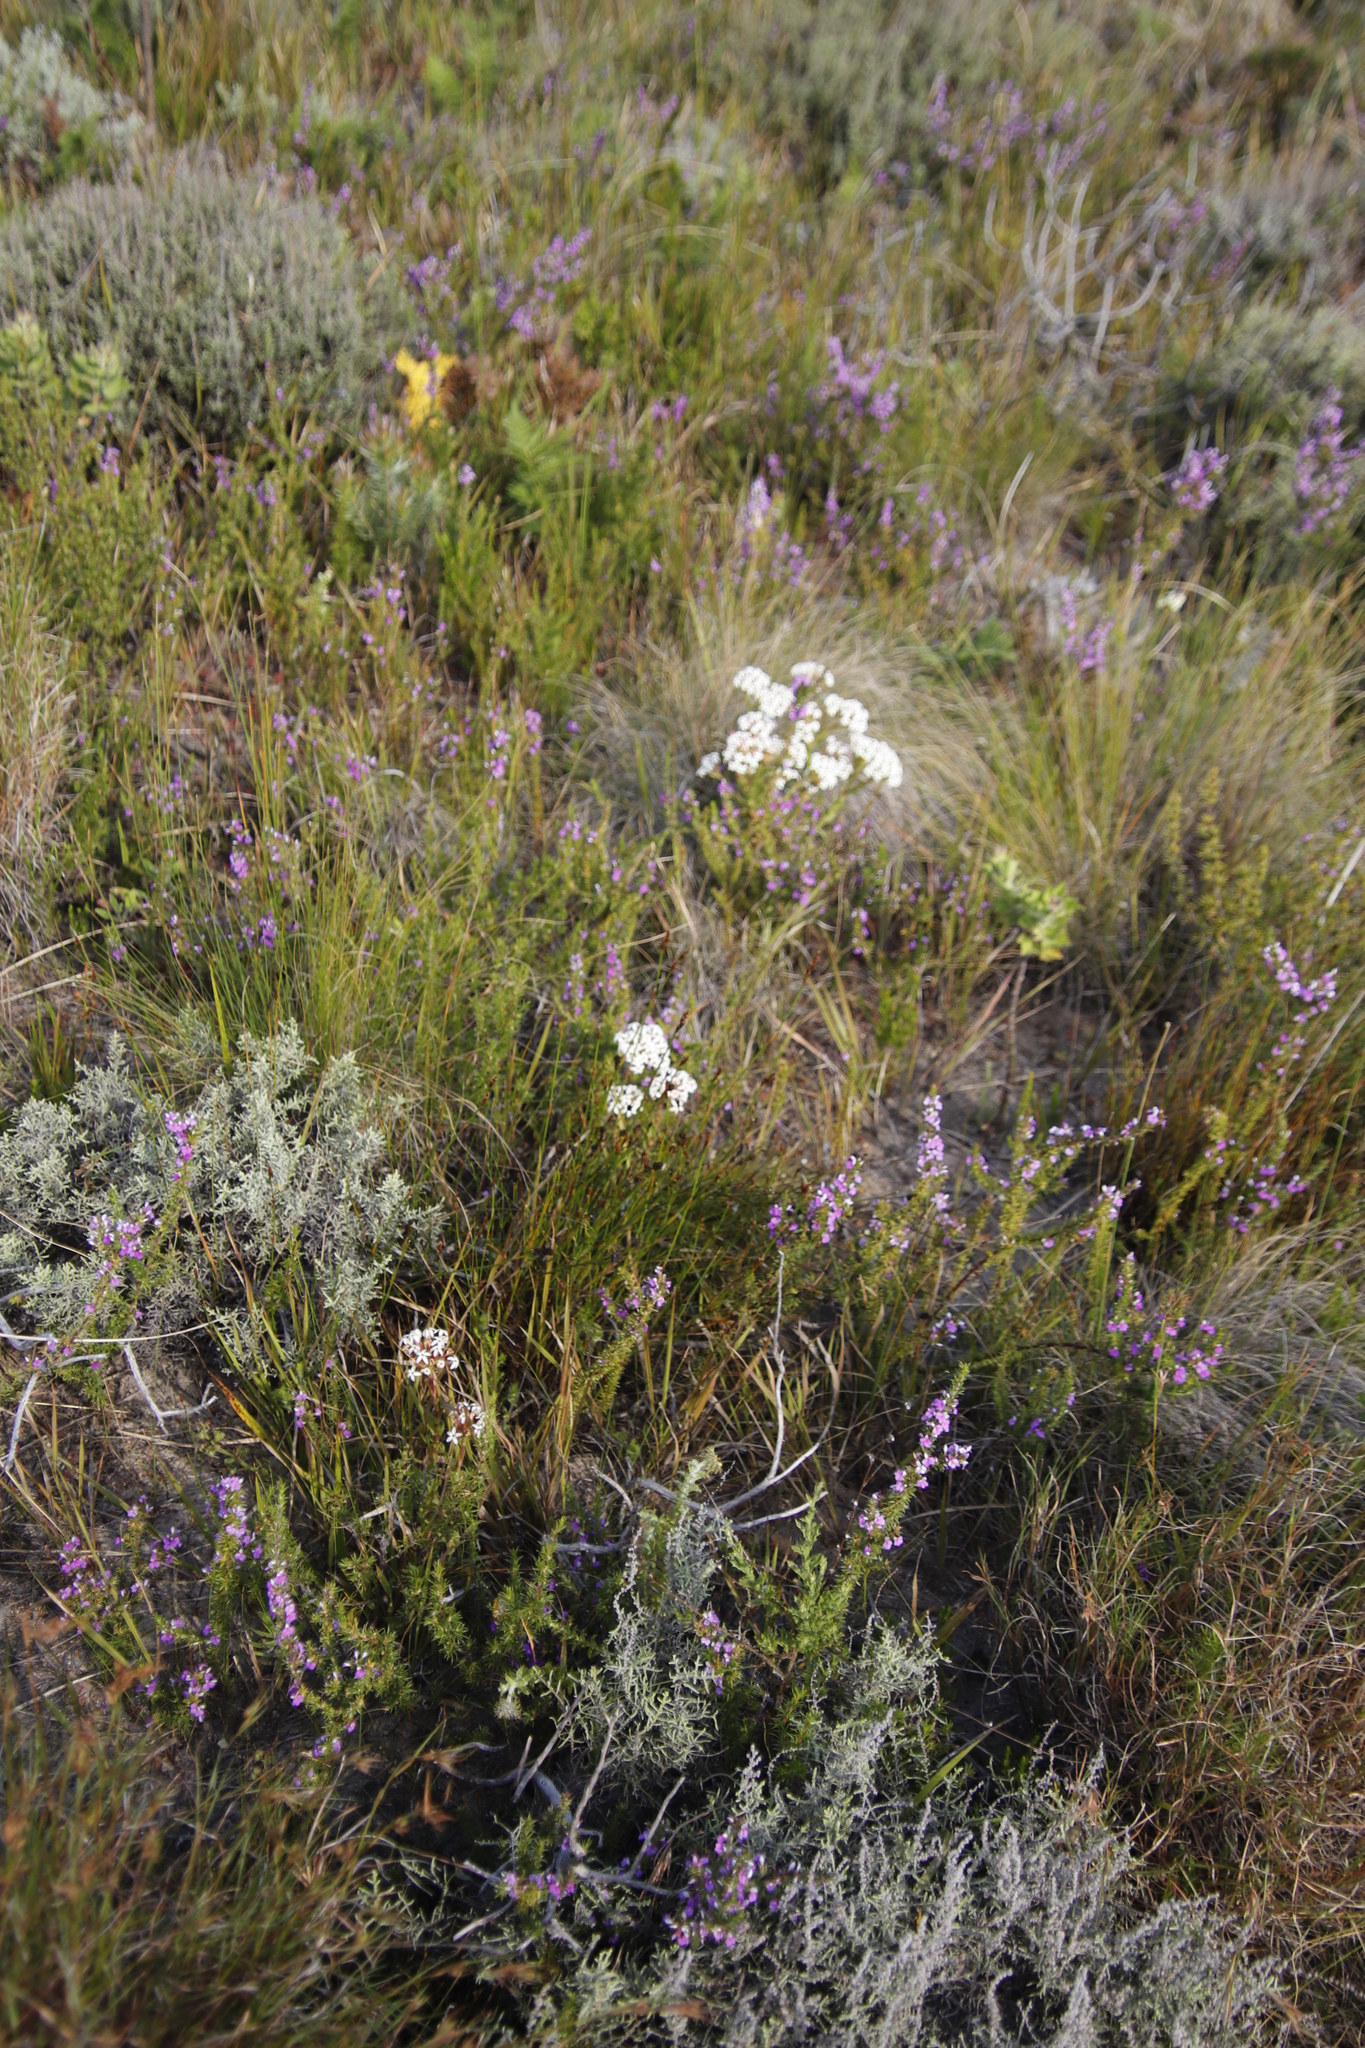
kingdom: Plantae
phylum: Tracheophyta
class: Magnoliopsida
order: Saxifragales
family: Crassulaceae
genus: Crassula
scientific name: Crassula fascicularis
